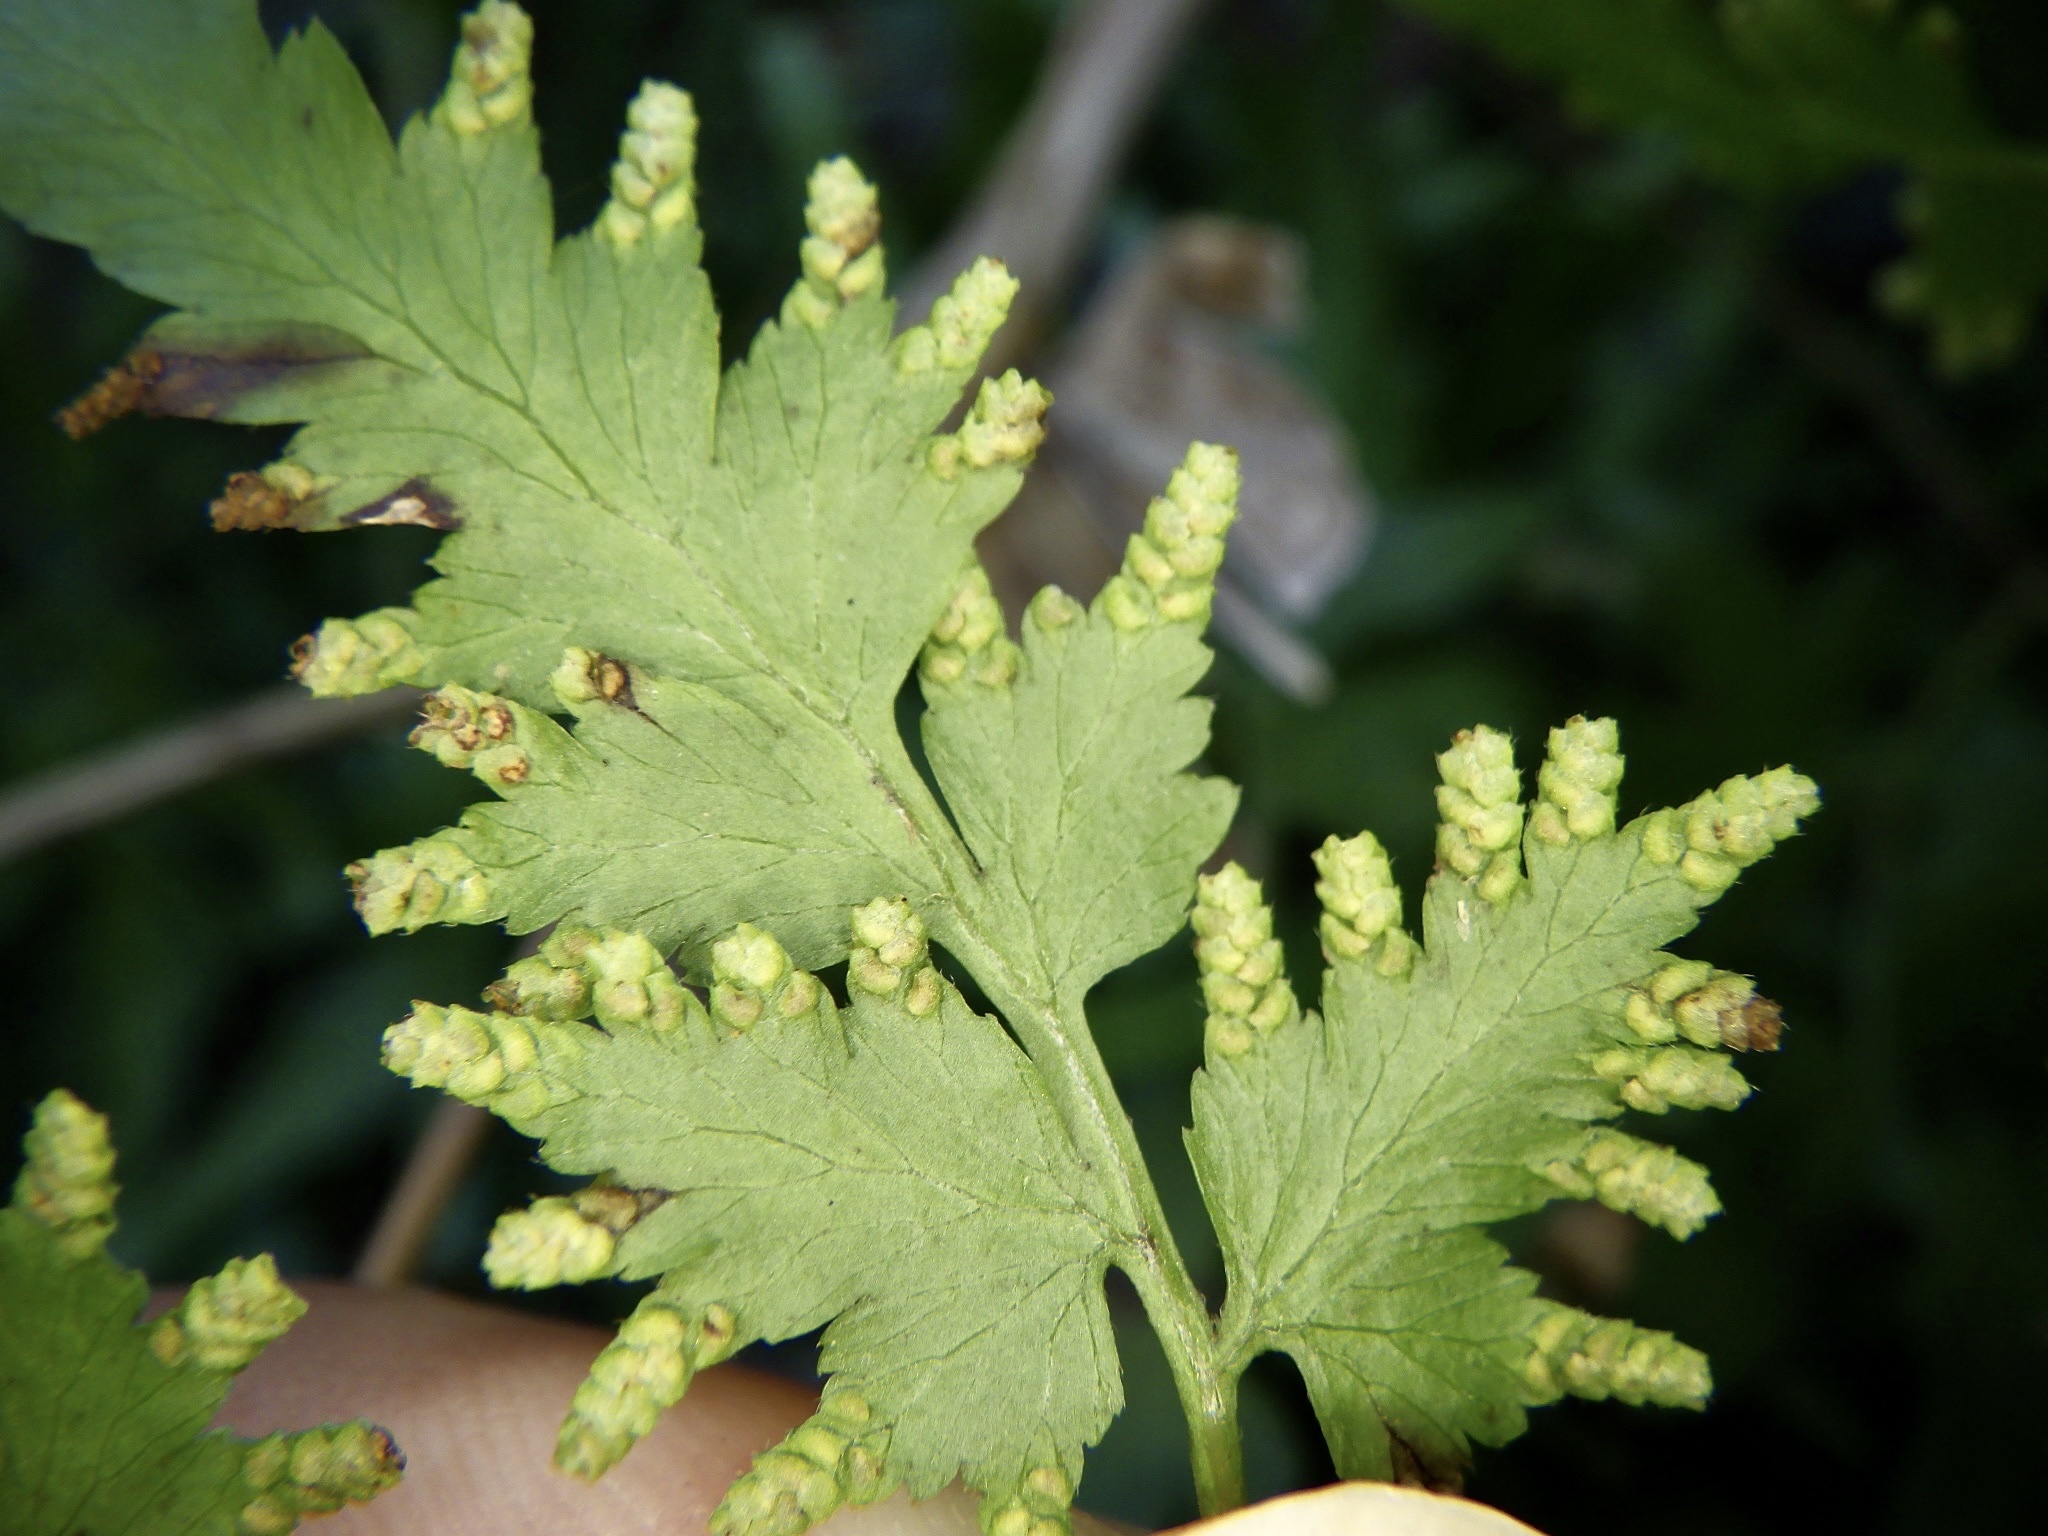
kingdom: Plantae
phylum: Tracheophyta
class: Polypodiopsida
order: Schizaeales
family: Lygodiaceae
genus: Lygodium
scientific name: Lygodium japonicum
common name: Japanese climbing fern
